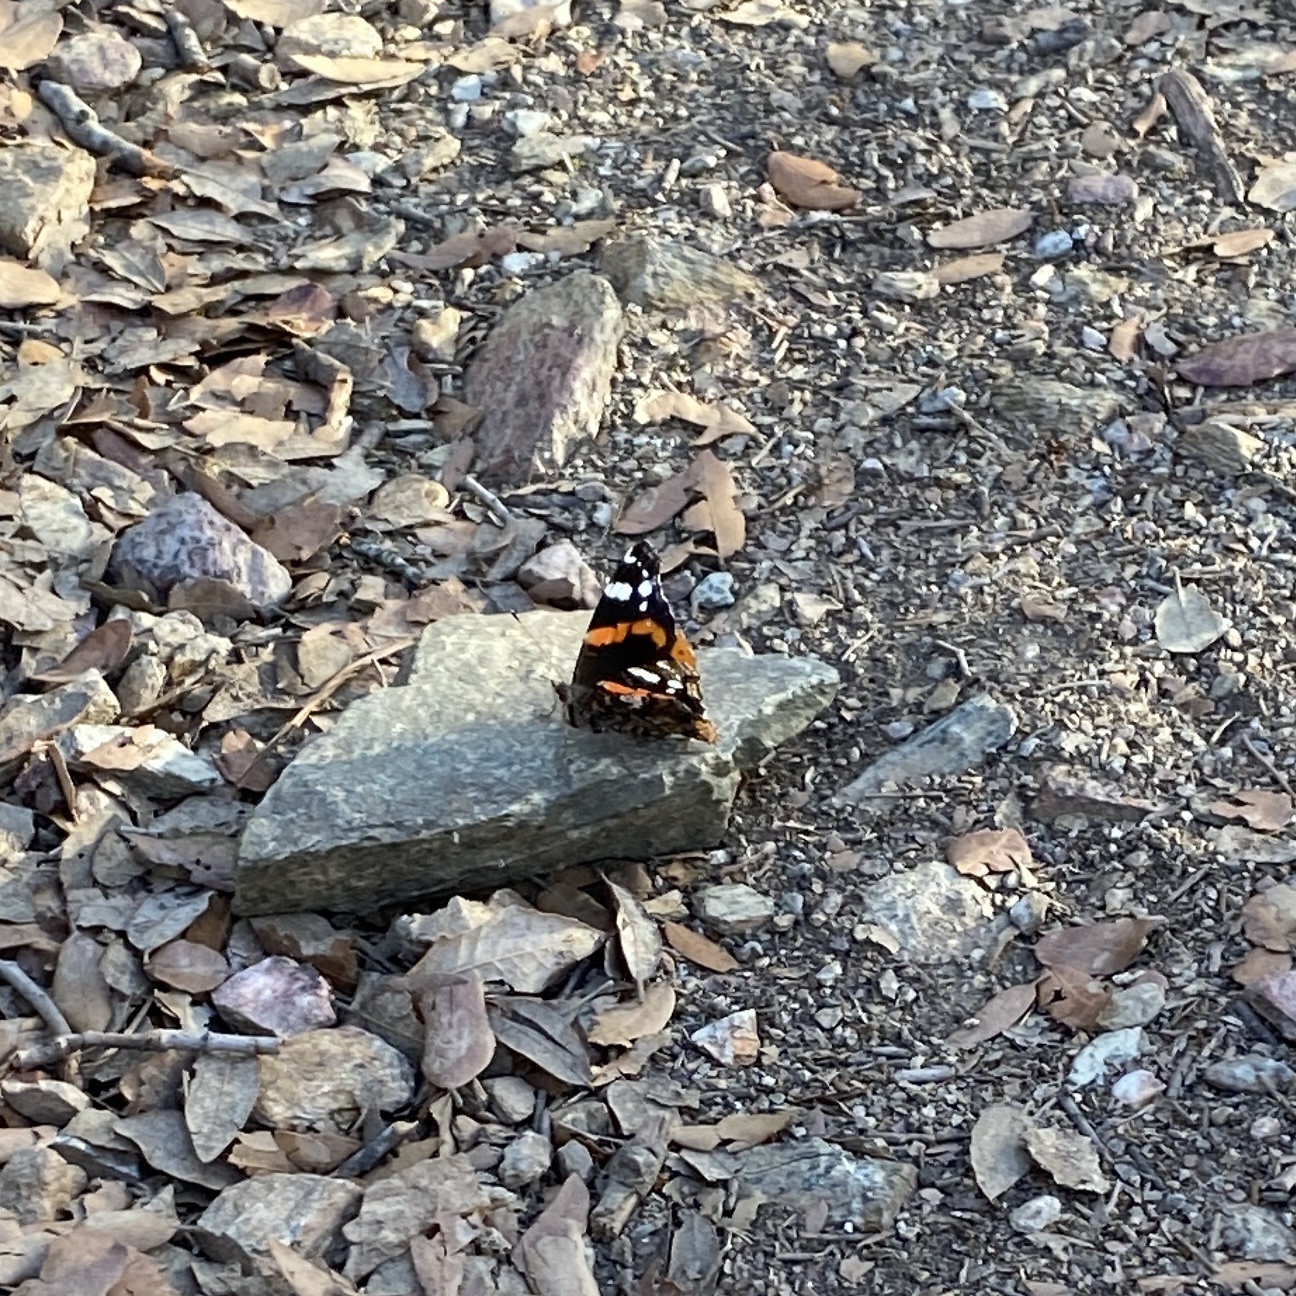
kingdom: Animalia
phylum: Arthropoda
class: Insecta
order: Lepidoptera
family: Nymphalidae
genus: Vanessa
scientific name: Vanessa atalanta
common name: Red admiral
